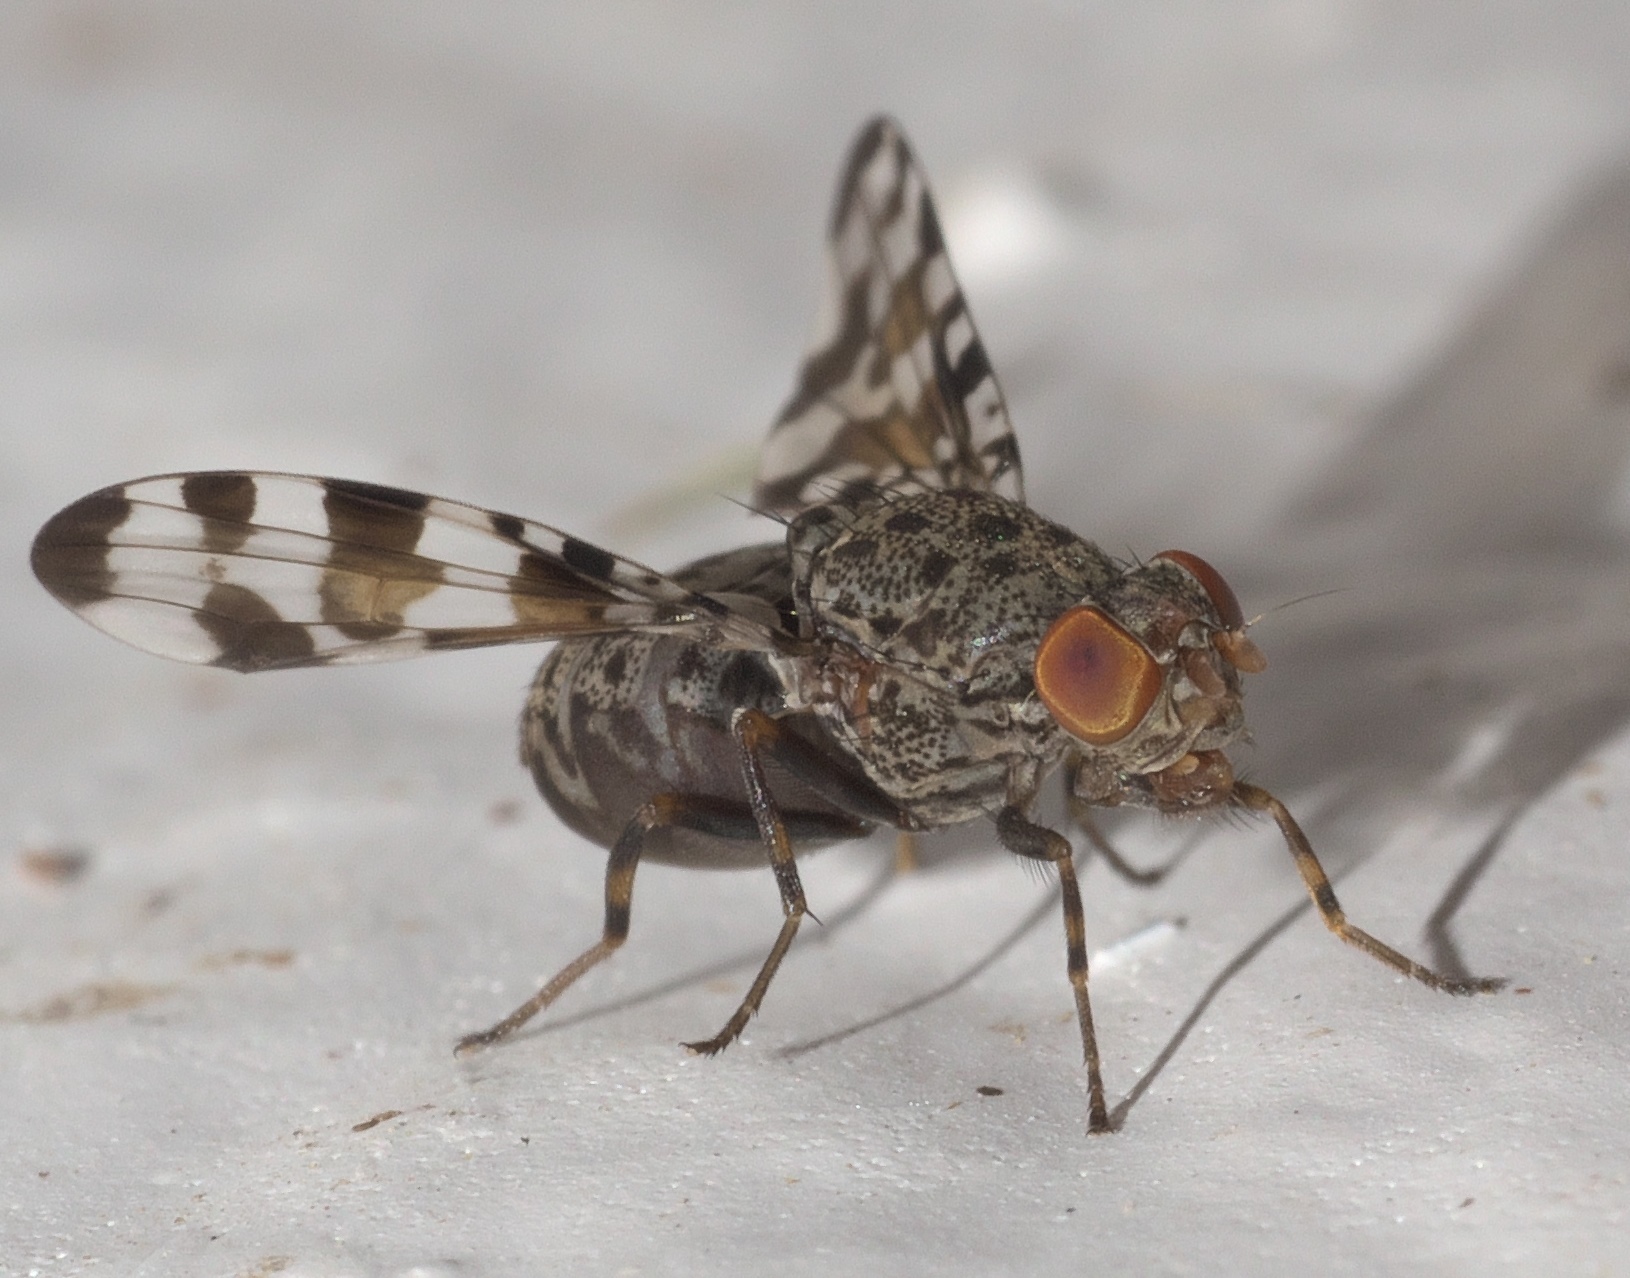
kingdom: Animalia
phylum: Arthropoda
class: Insecta
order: Diptera
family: Ulidiidae
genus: Pseudotephritis
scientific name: Pseudotephritis approximata
